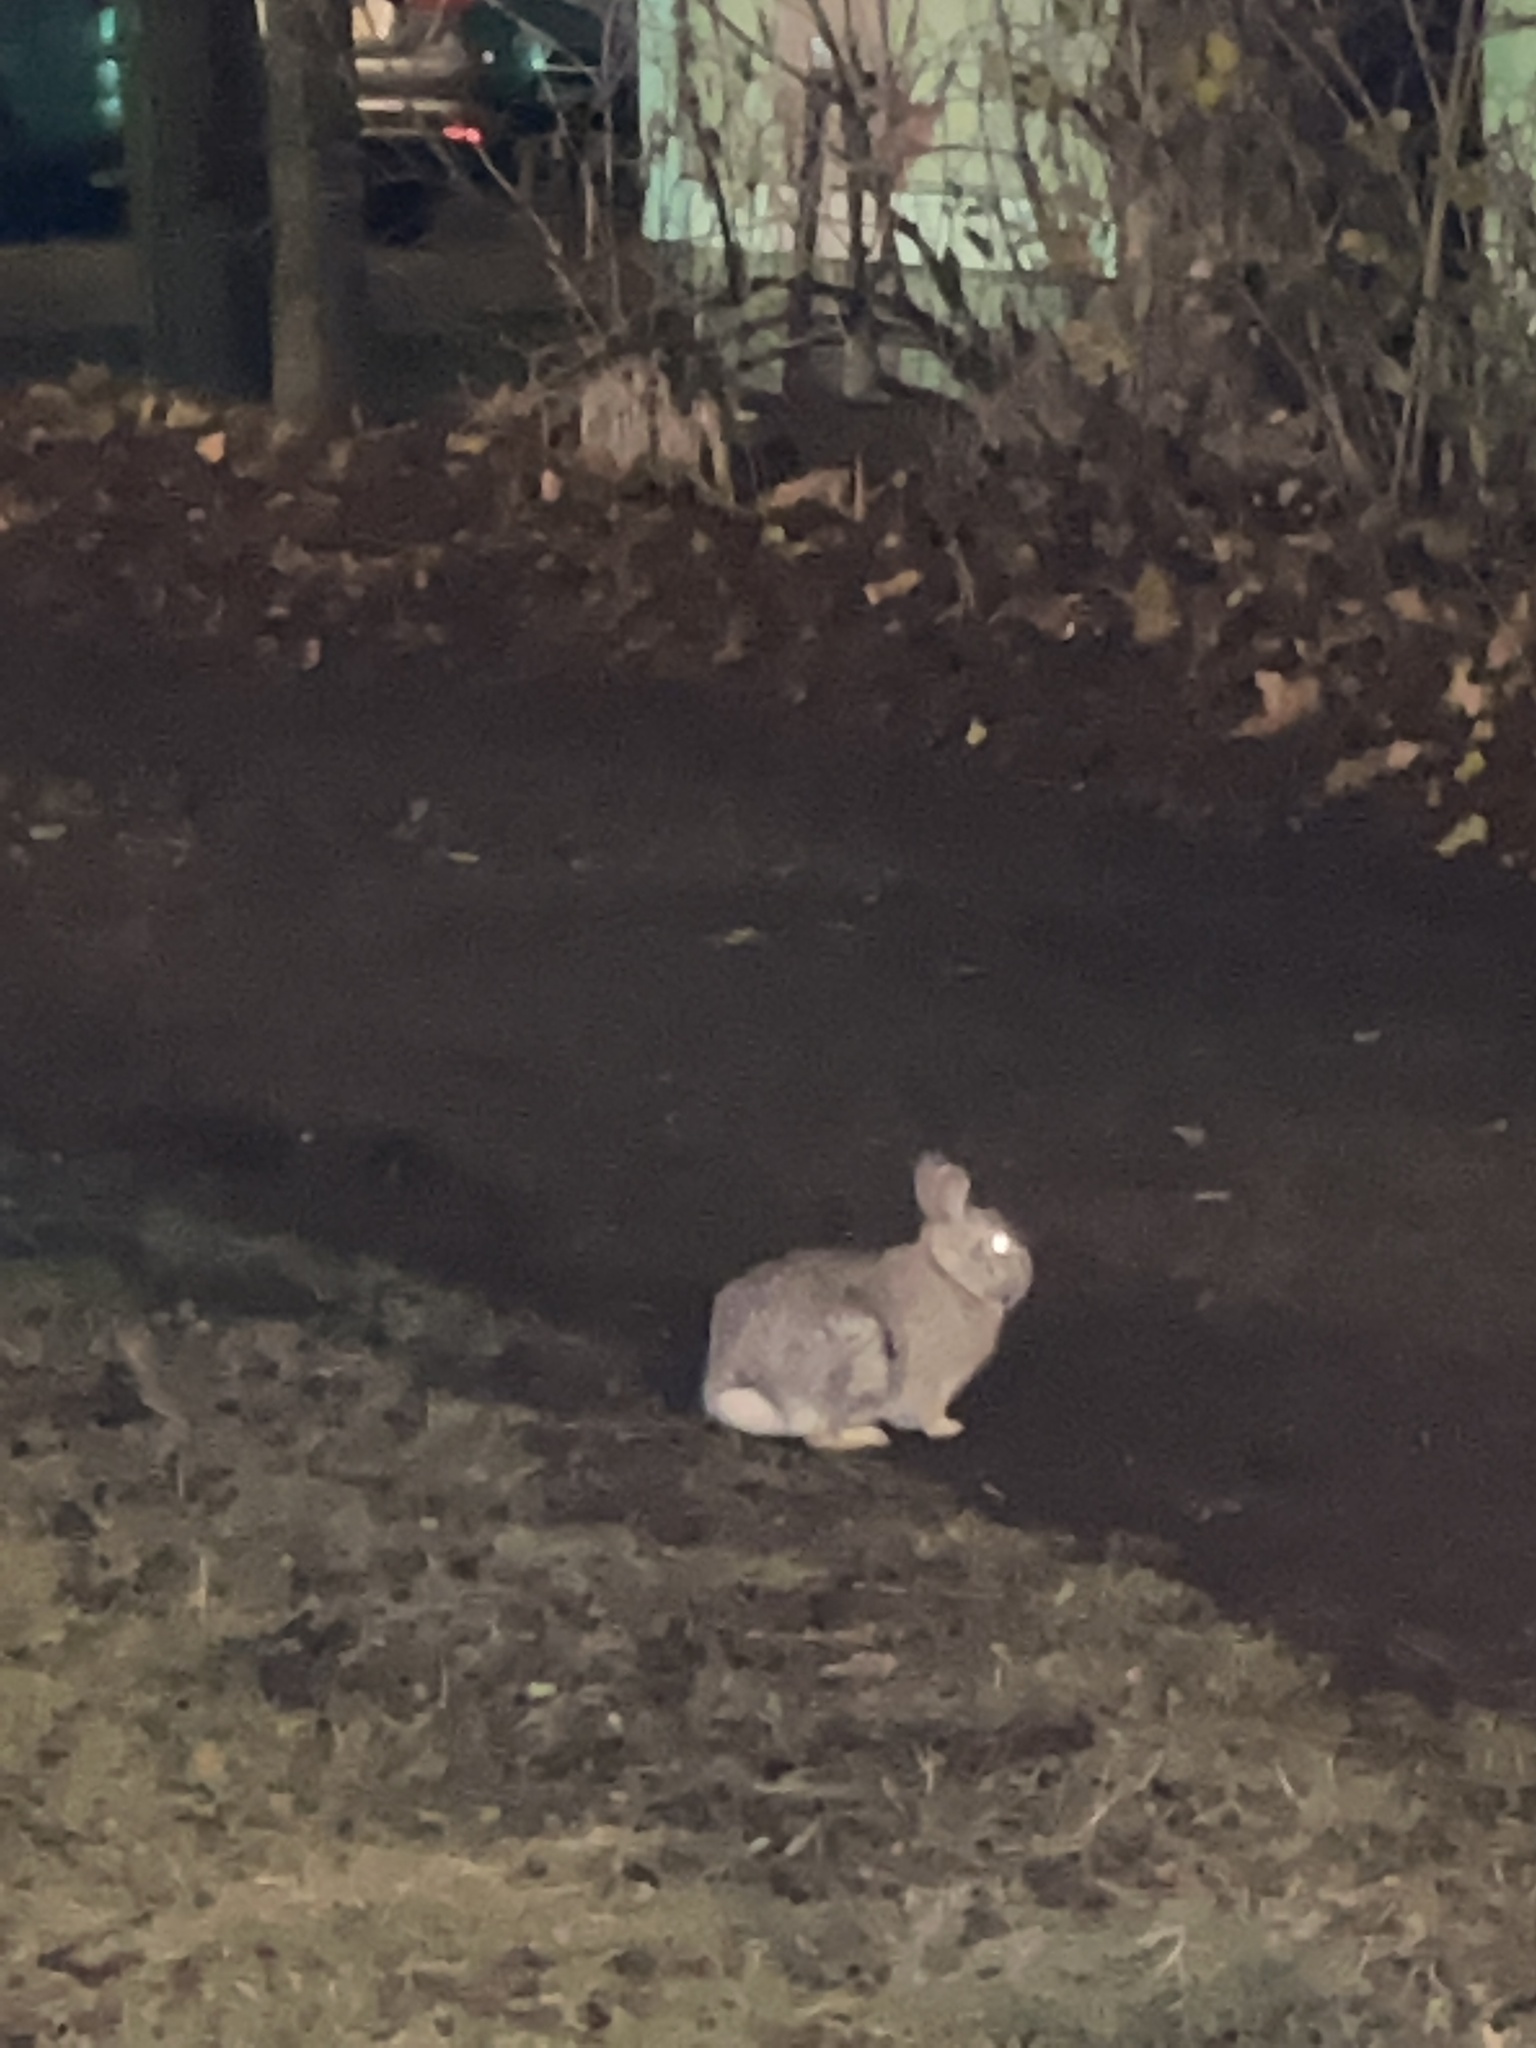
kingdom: Animalia
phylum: Chordata
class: Mammalia
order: Lagomorpha
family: Leporidae
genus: Sylvilagus
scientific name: Sylvilagus floridanus
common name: Eastern cottontail
